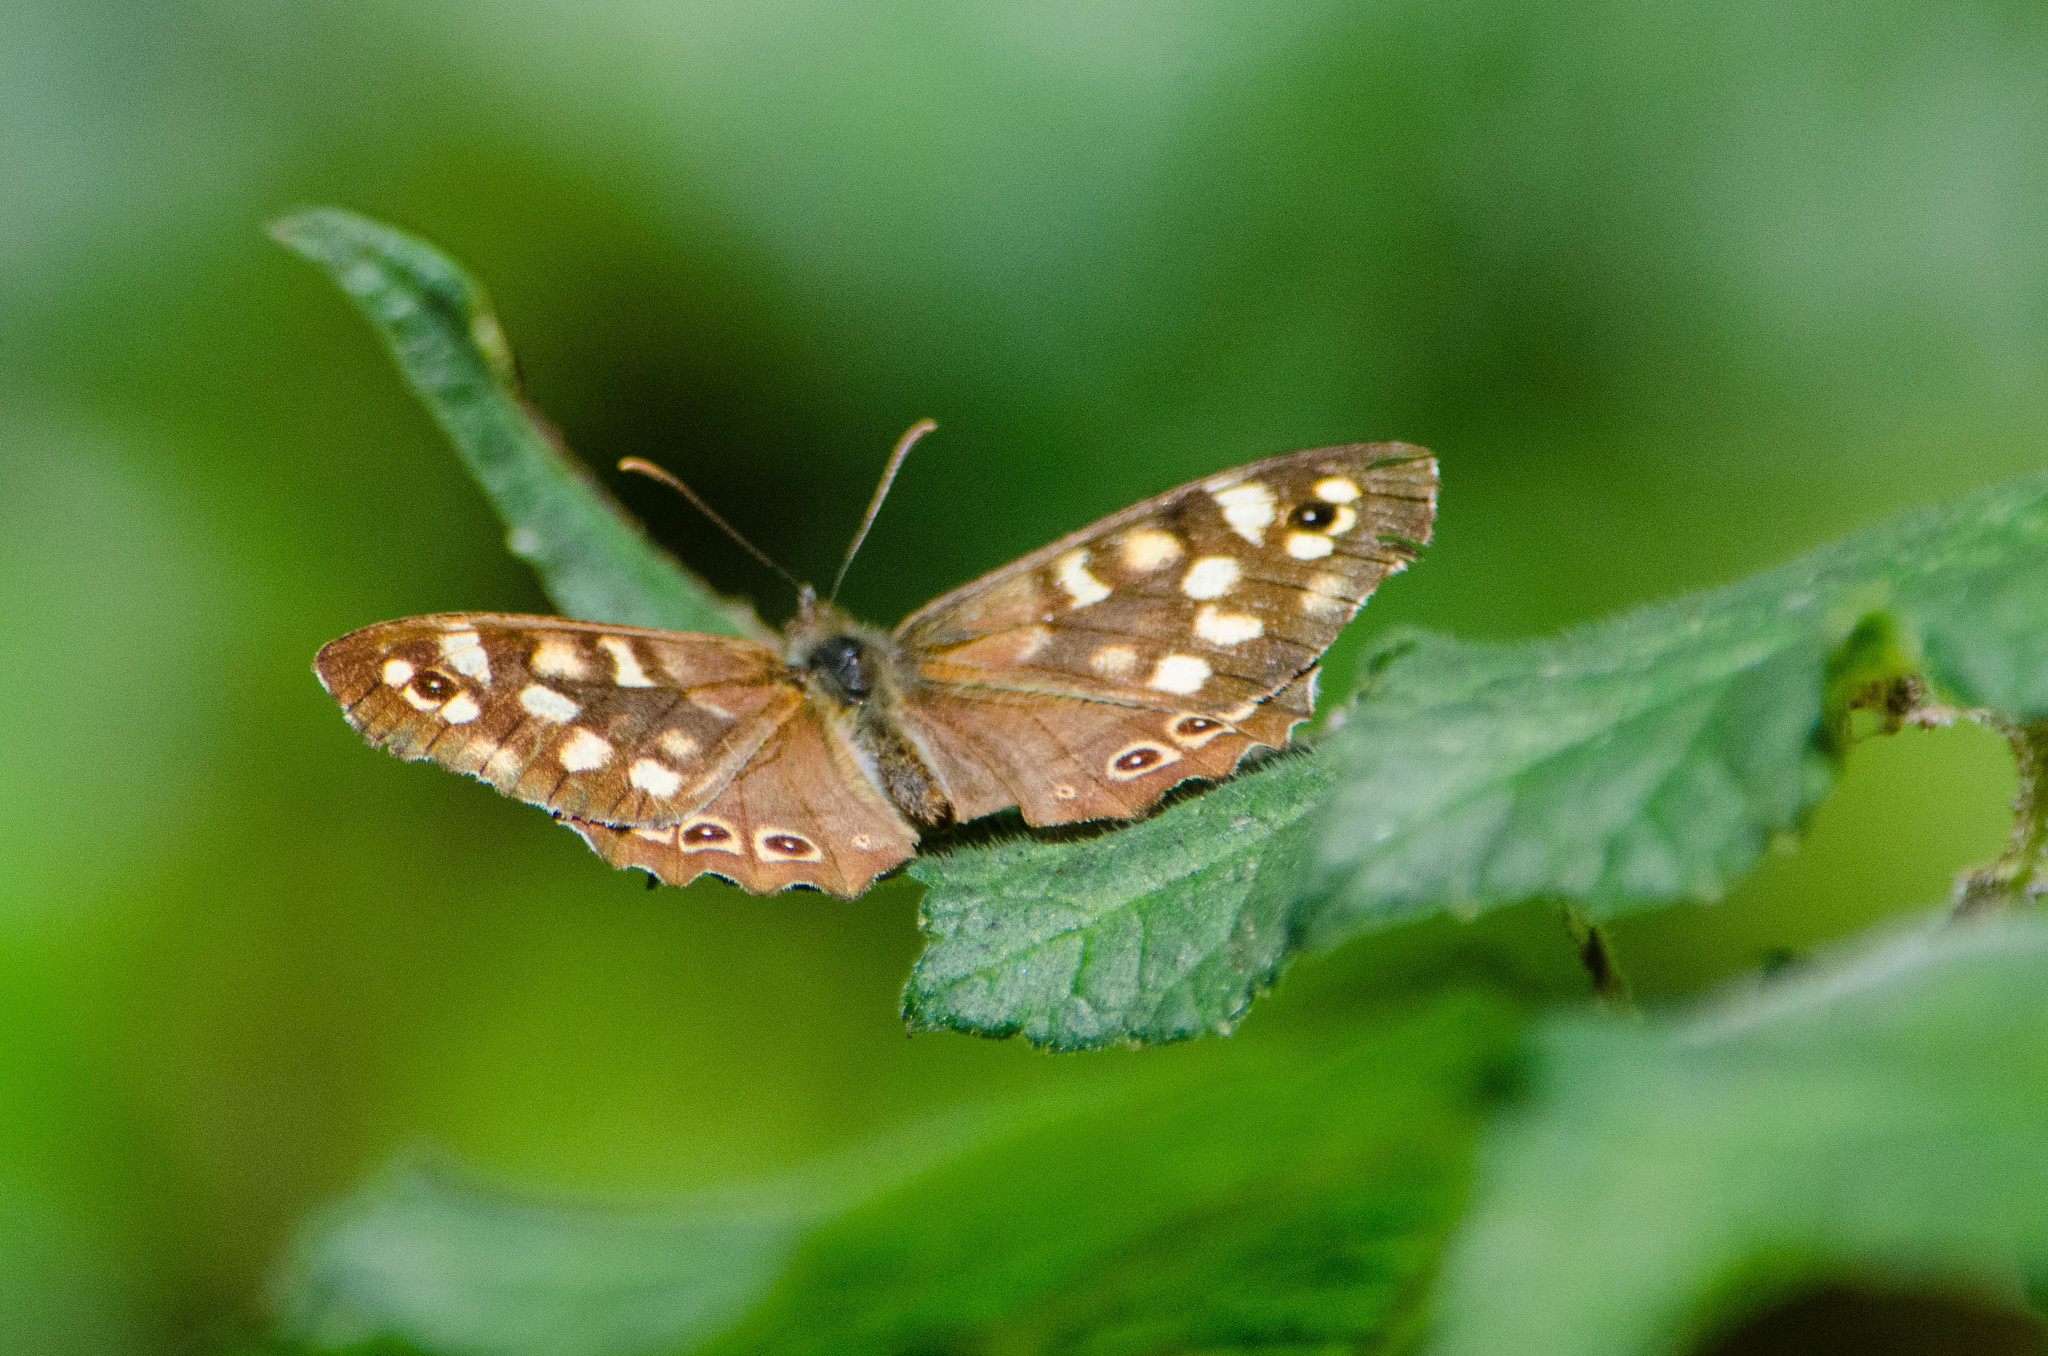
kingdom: Animalia
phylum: Arthropoda
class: Insecta
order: Lepidoptera
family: Nymphalidae
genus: Pararge
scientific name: Pararge aegeria
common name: Speckled wood
